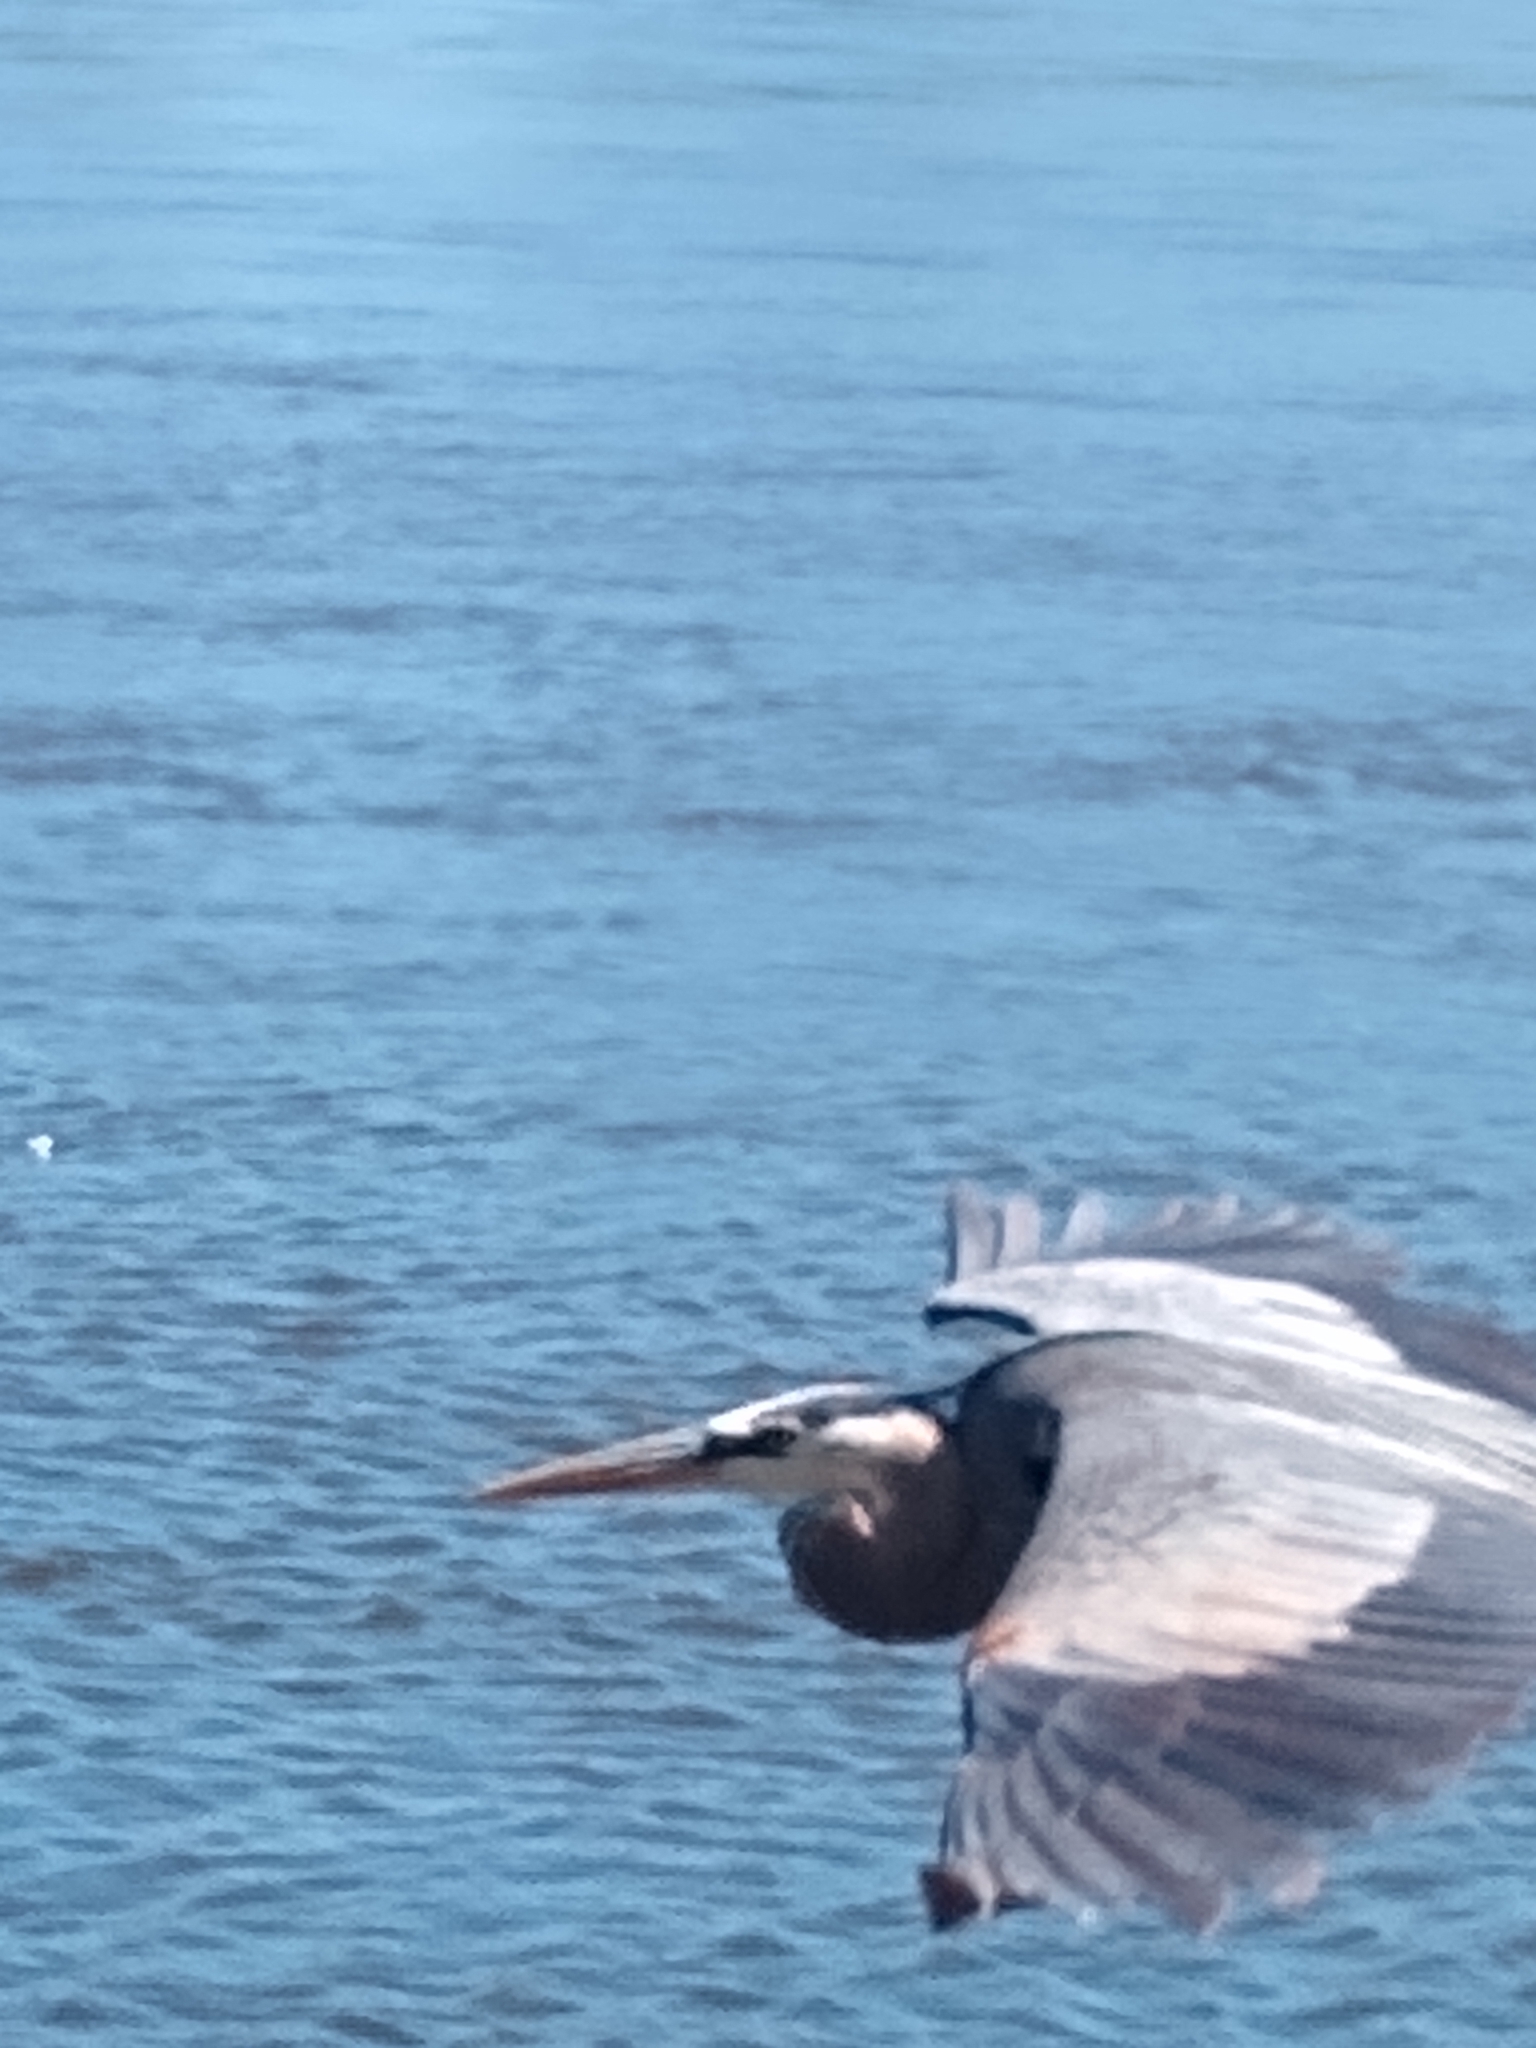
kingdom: Animalia
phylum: Chordata
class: Aves
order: Pelecaniformes
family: Ardeidae
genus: Ardea
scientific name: Ardea herodias
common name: Great blue heron
